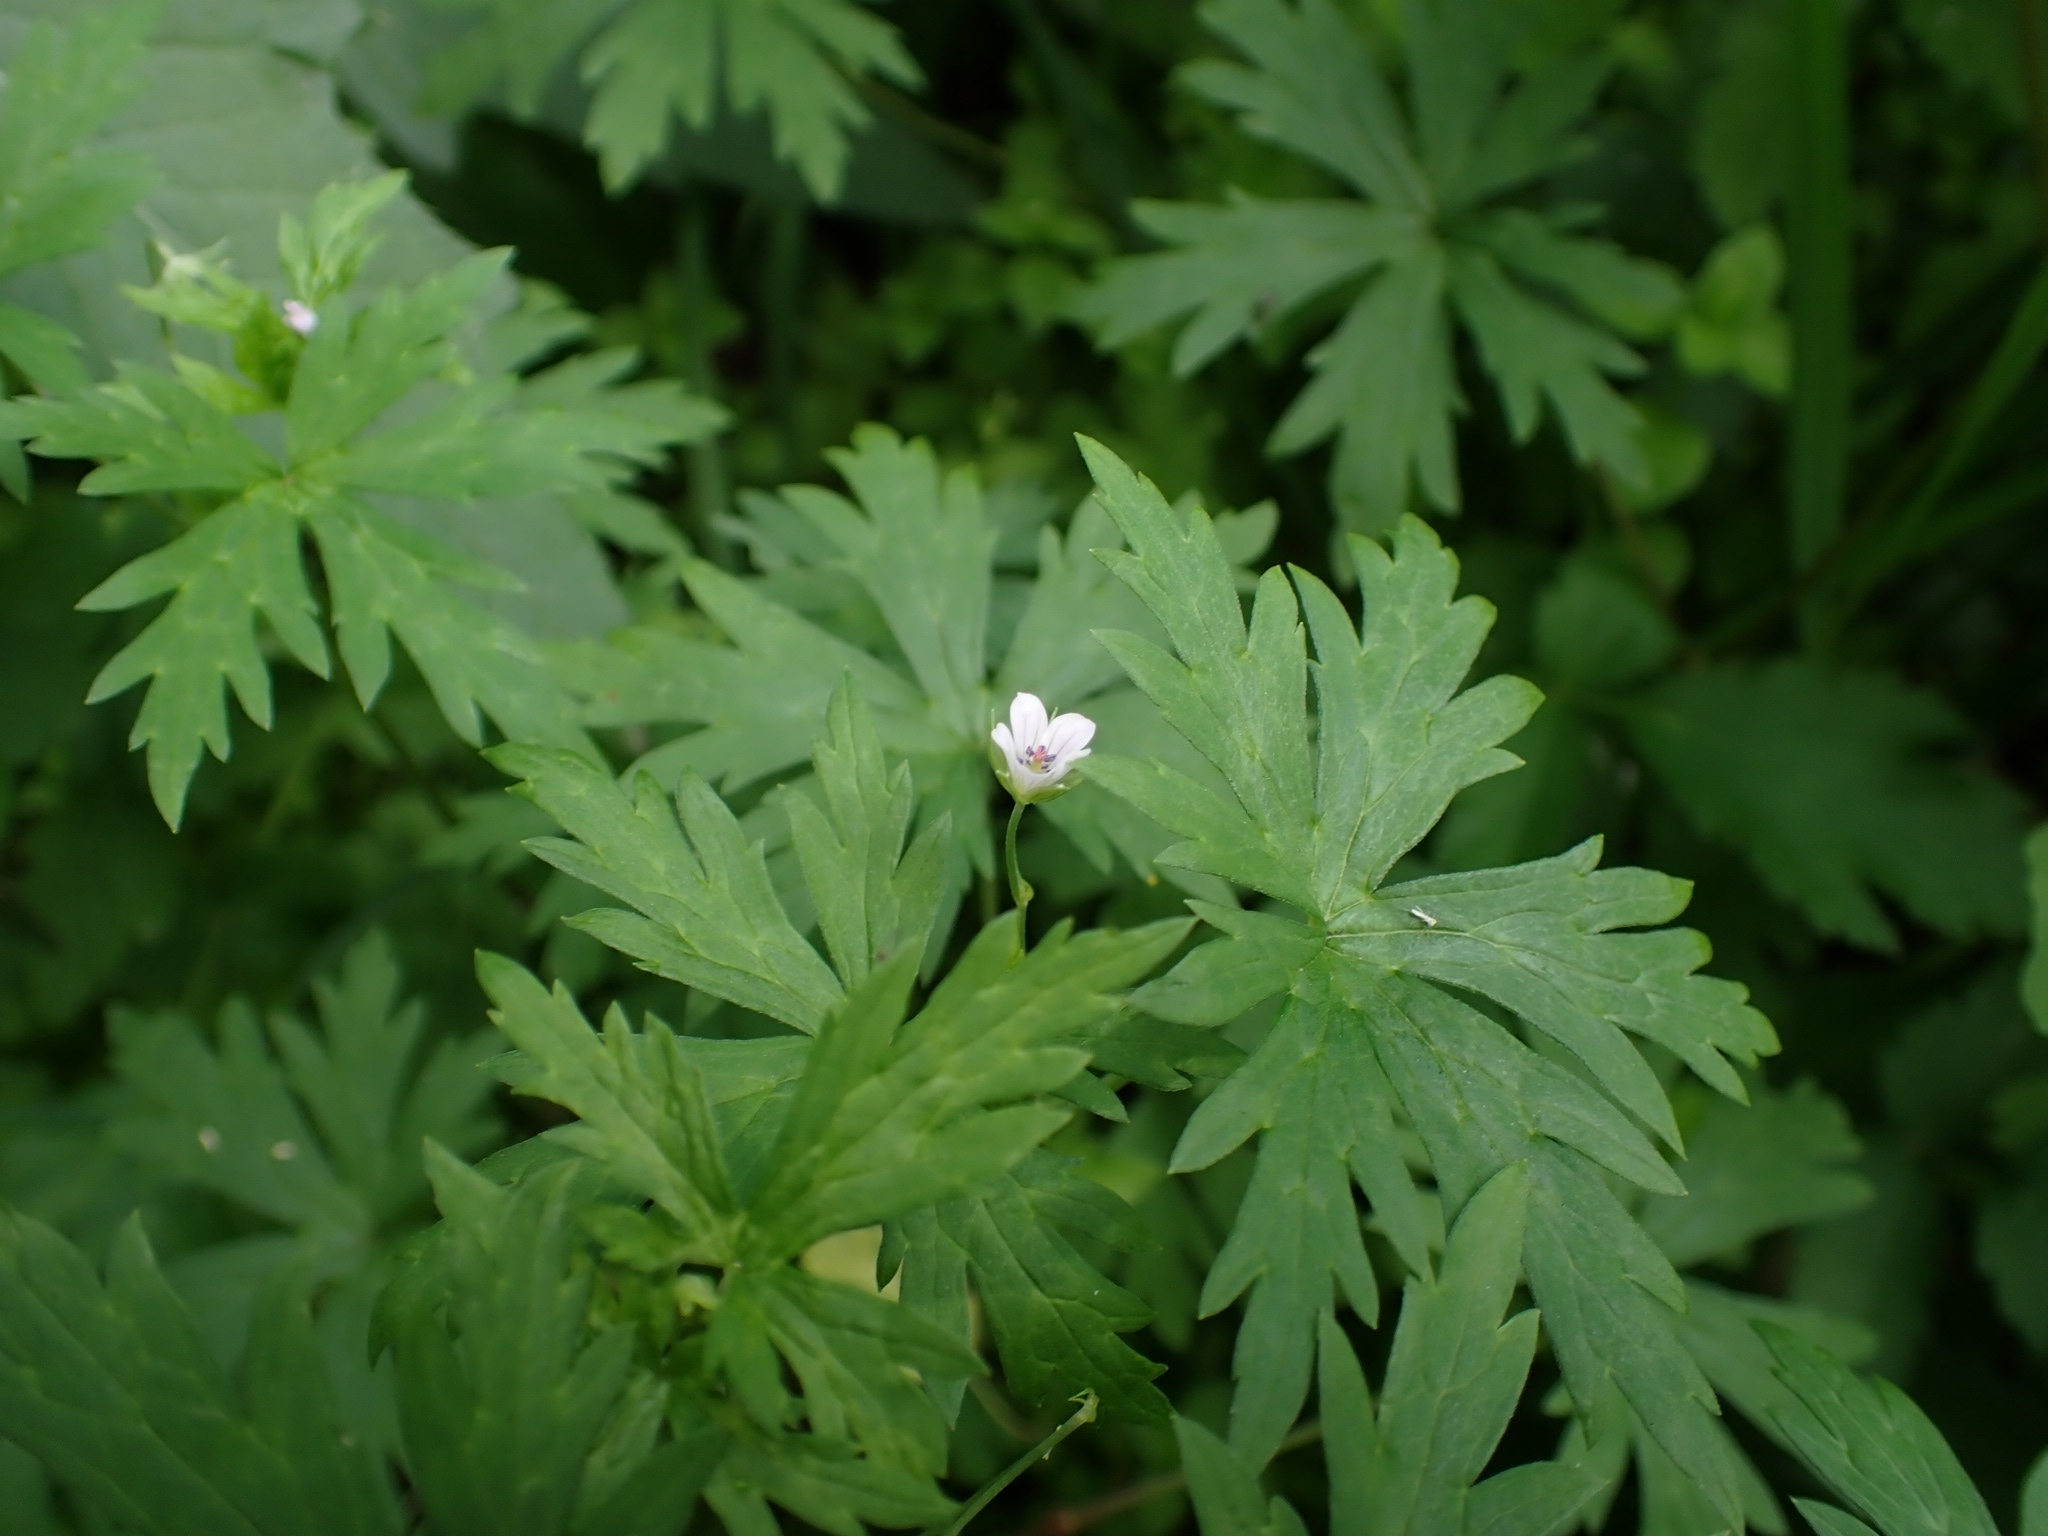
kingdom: Plantae
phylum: Tracheophyta
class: Magnoliopsida
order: Geraniales
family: Geraniaceae
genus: Geranium
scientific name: Geranium sibiricum
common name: Siberian crane's-bill
